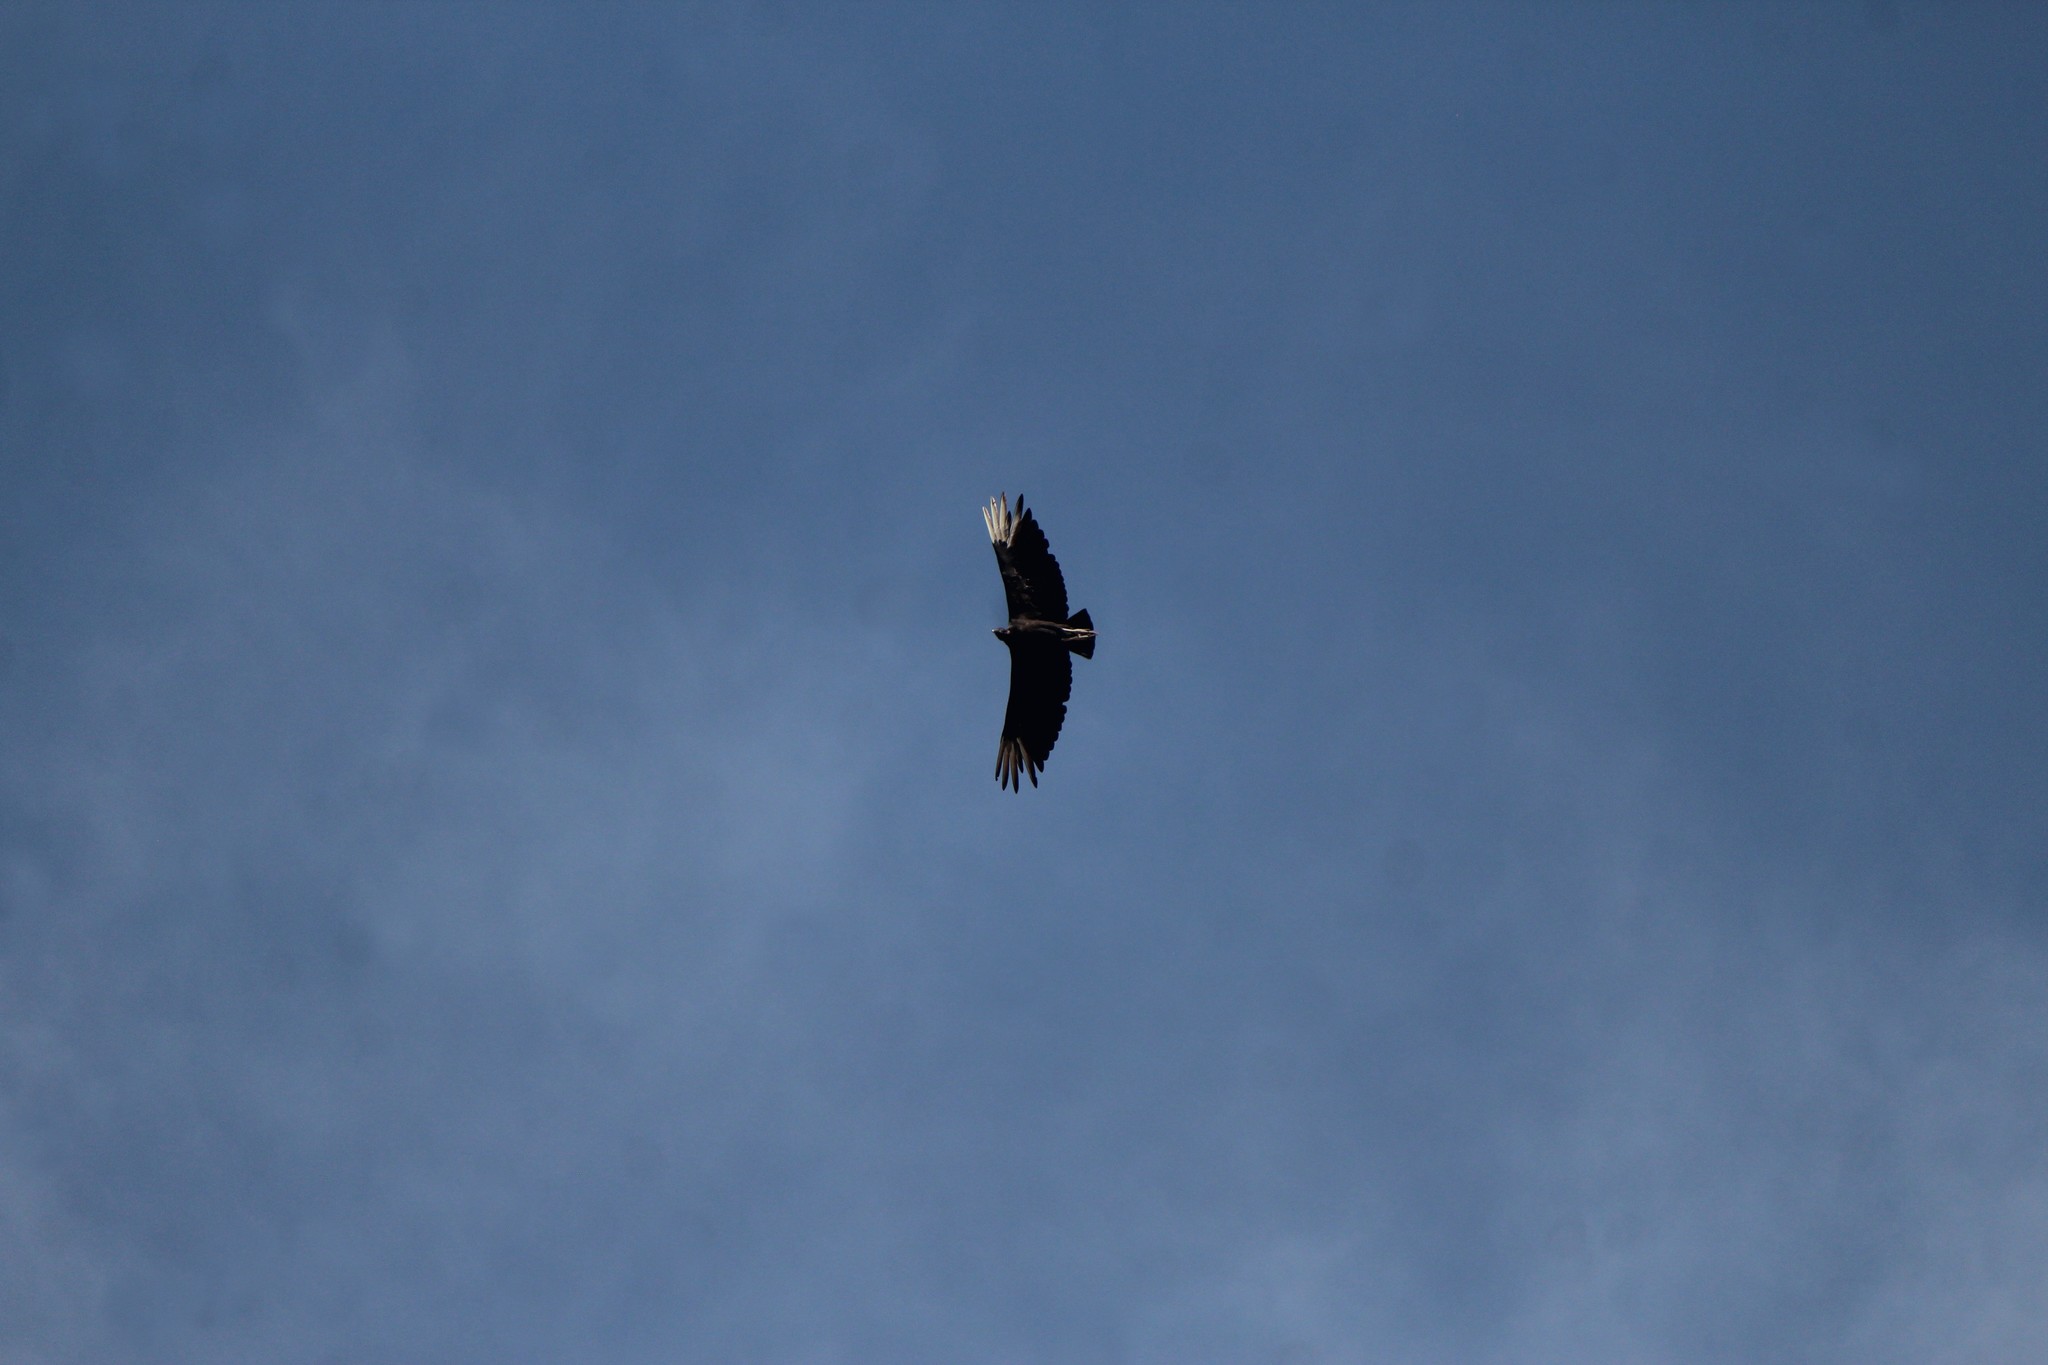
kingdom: Animalia
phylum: Chordata
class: Aves
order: Accipitriformes
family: Cathartidae
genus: Coragyps
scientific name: Coragyps atratus
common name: Black vulture
